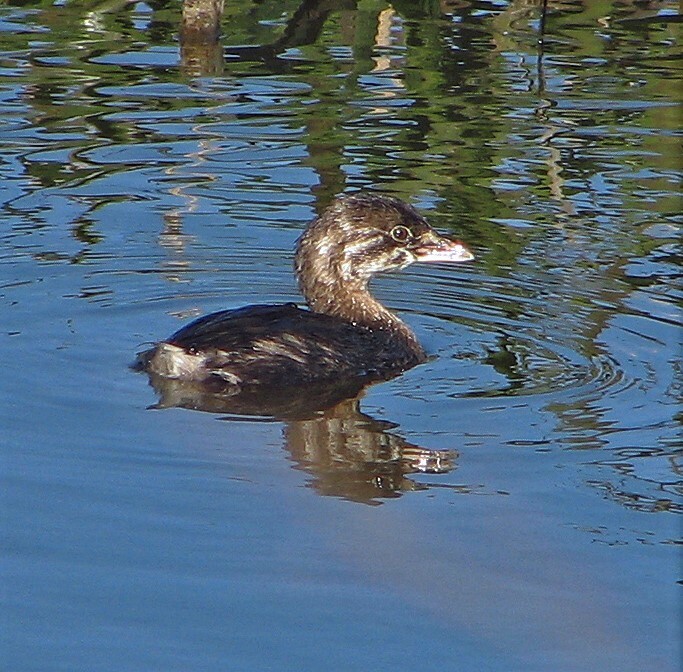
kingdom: Animalia
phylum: Chordata
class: Aves
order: Podicipediformes
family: Podicipedidae
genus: Podilymbus
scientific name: Podilymbus podiceps
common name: Pied-billed grebe
